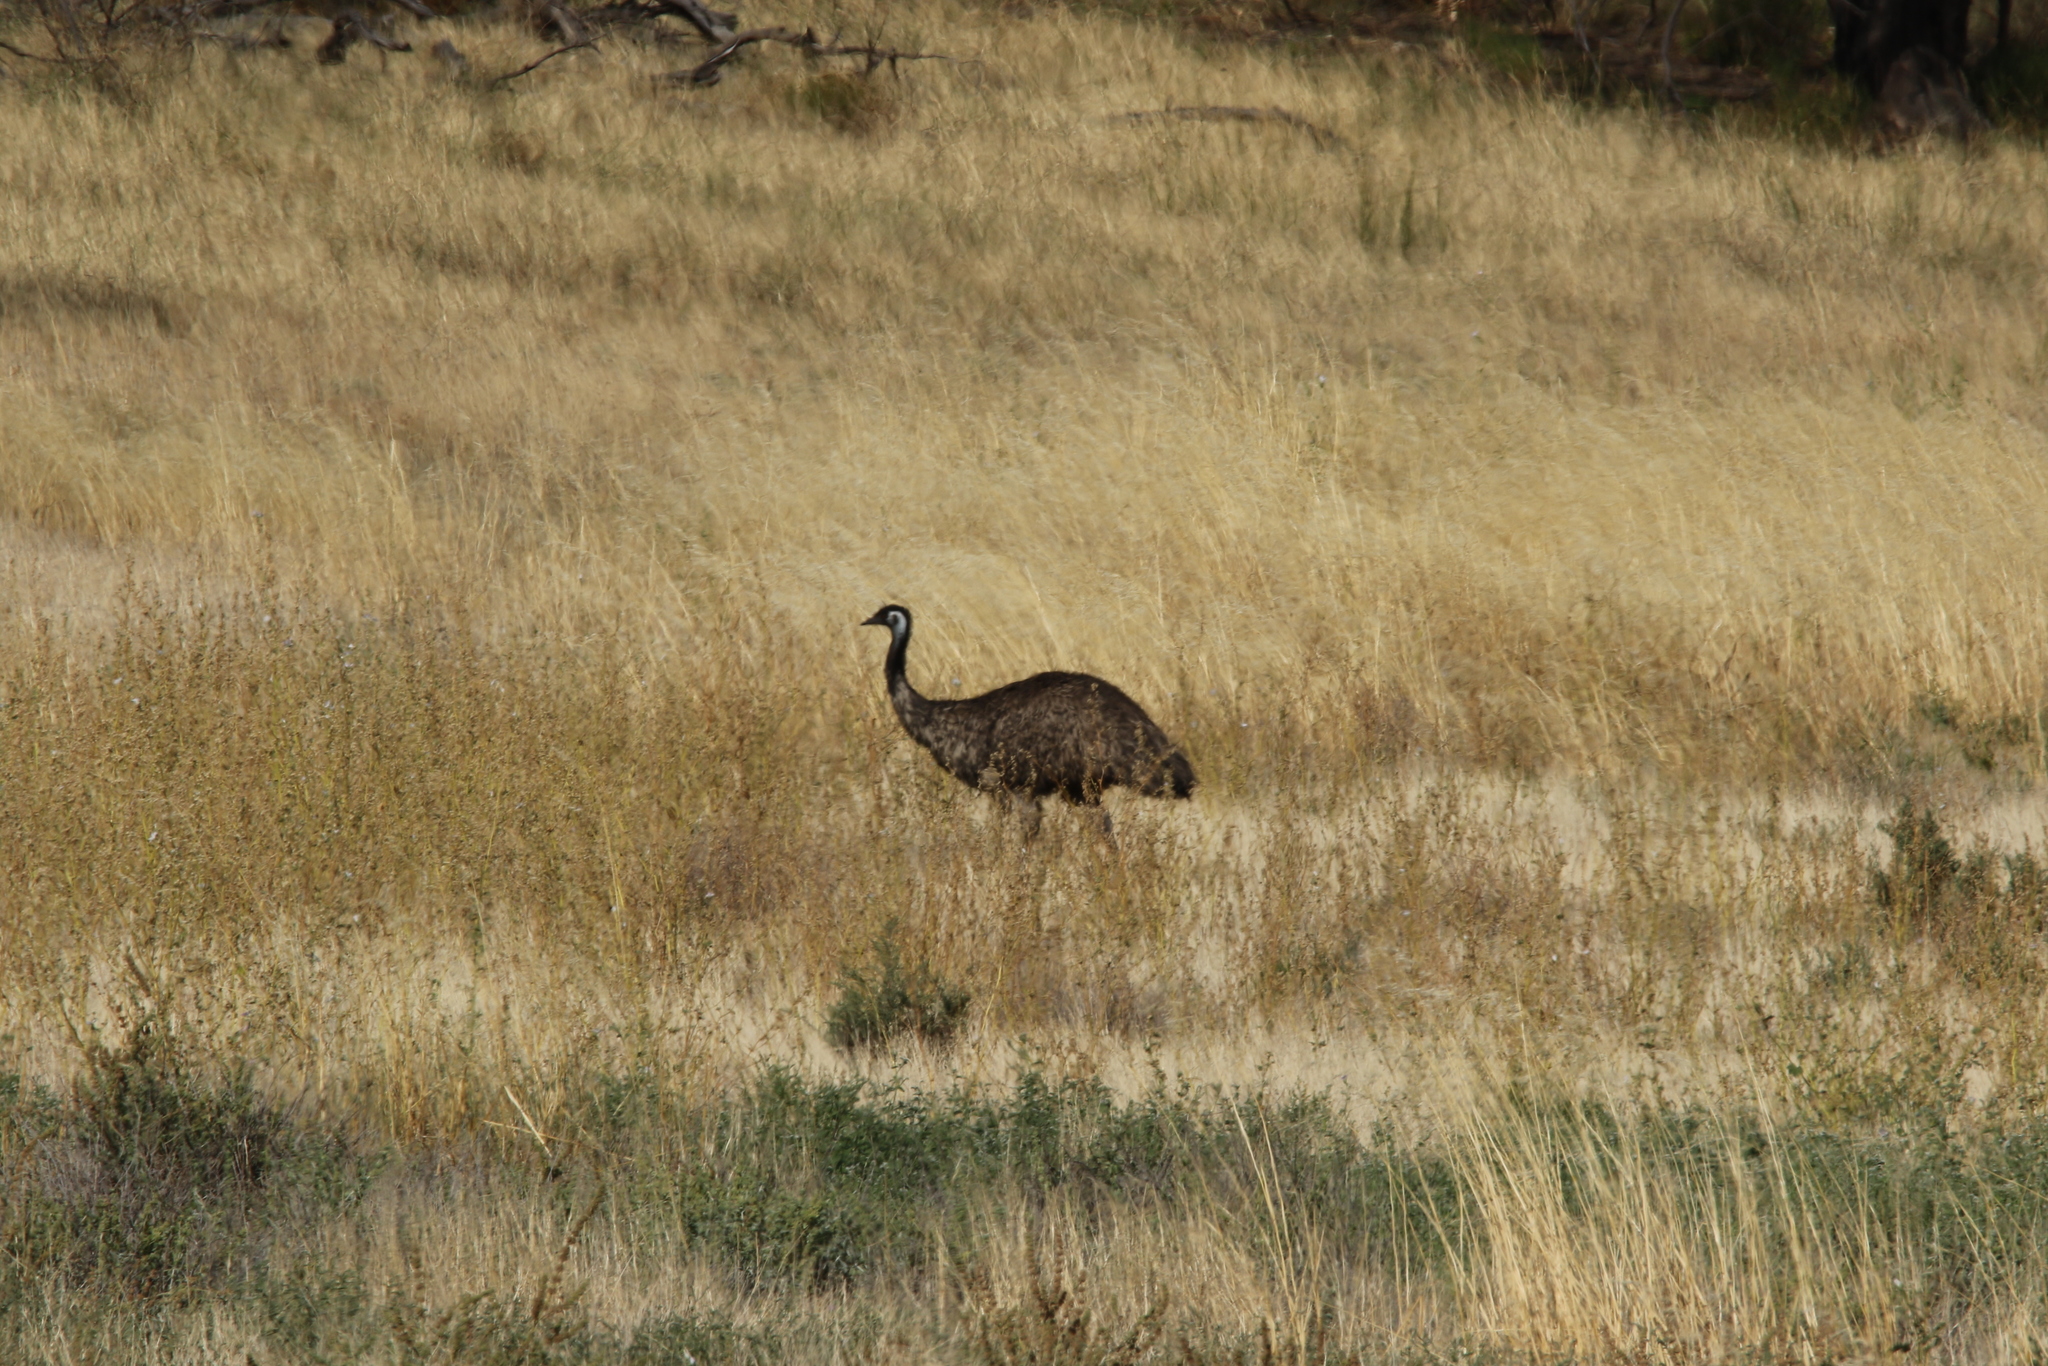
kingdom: Animalia
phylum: Chordata
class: Aves
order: Casuariiformes
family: Dromaiidae
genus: Dromaius
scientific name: Dromaius novaehollandiae
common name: Emu
